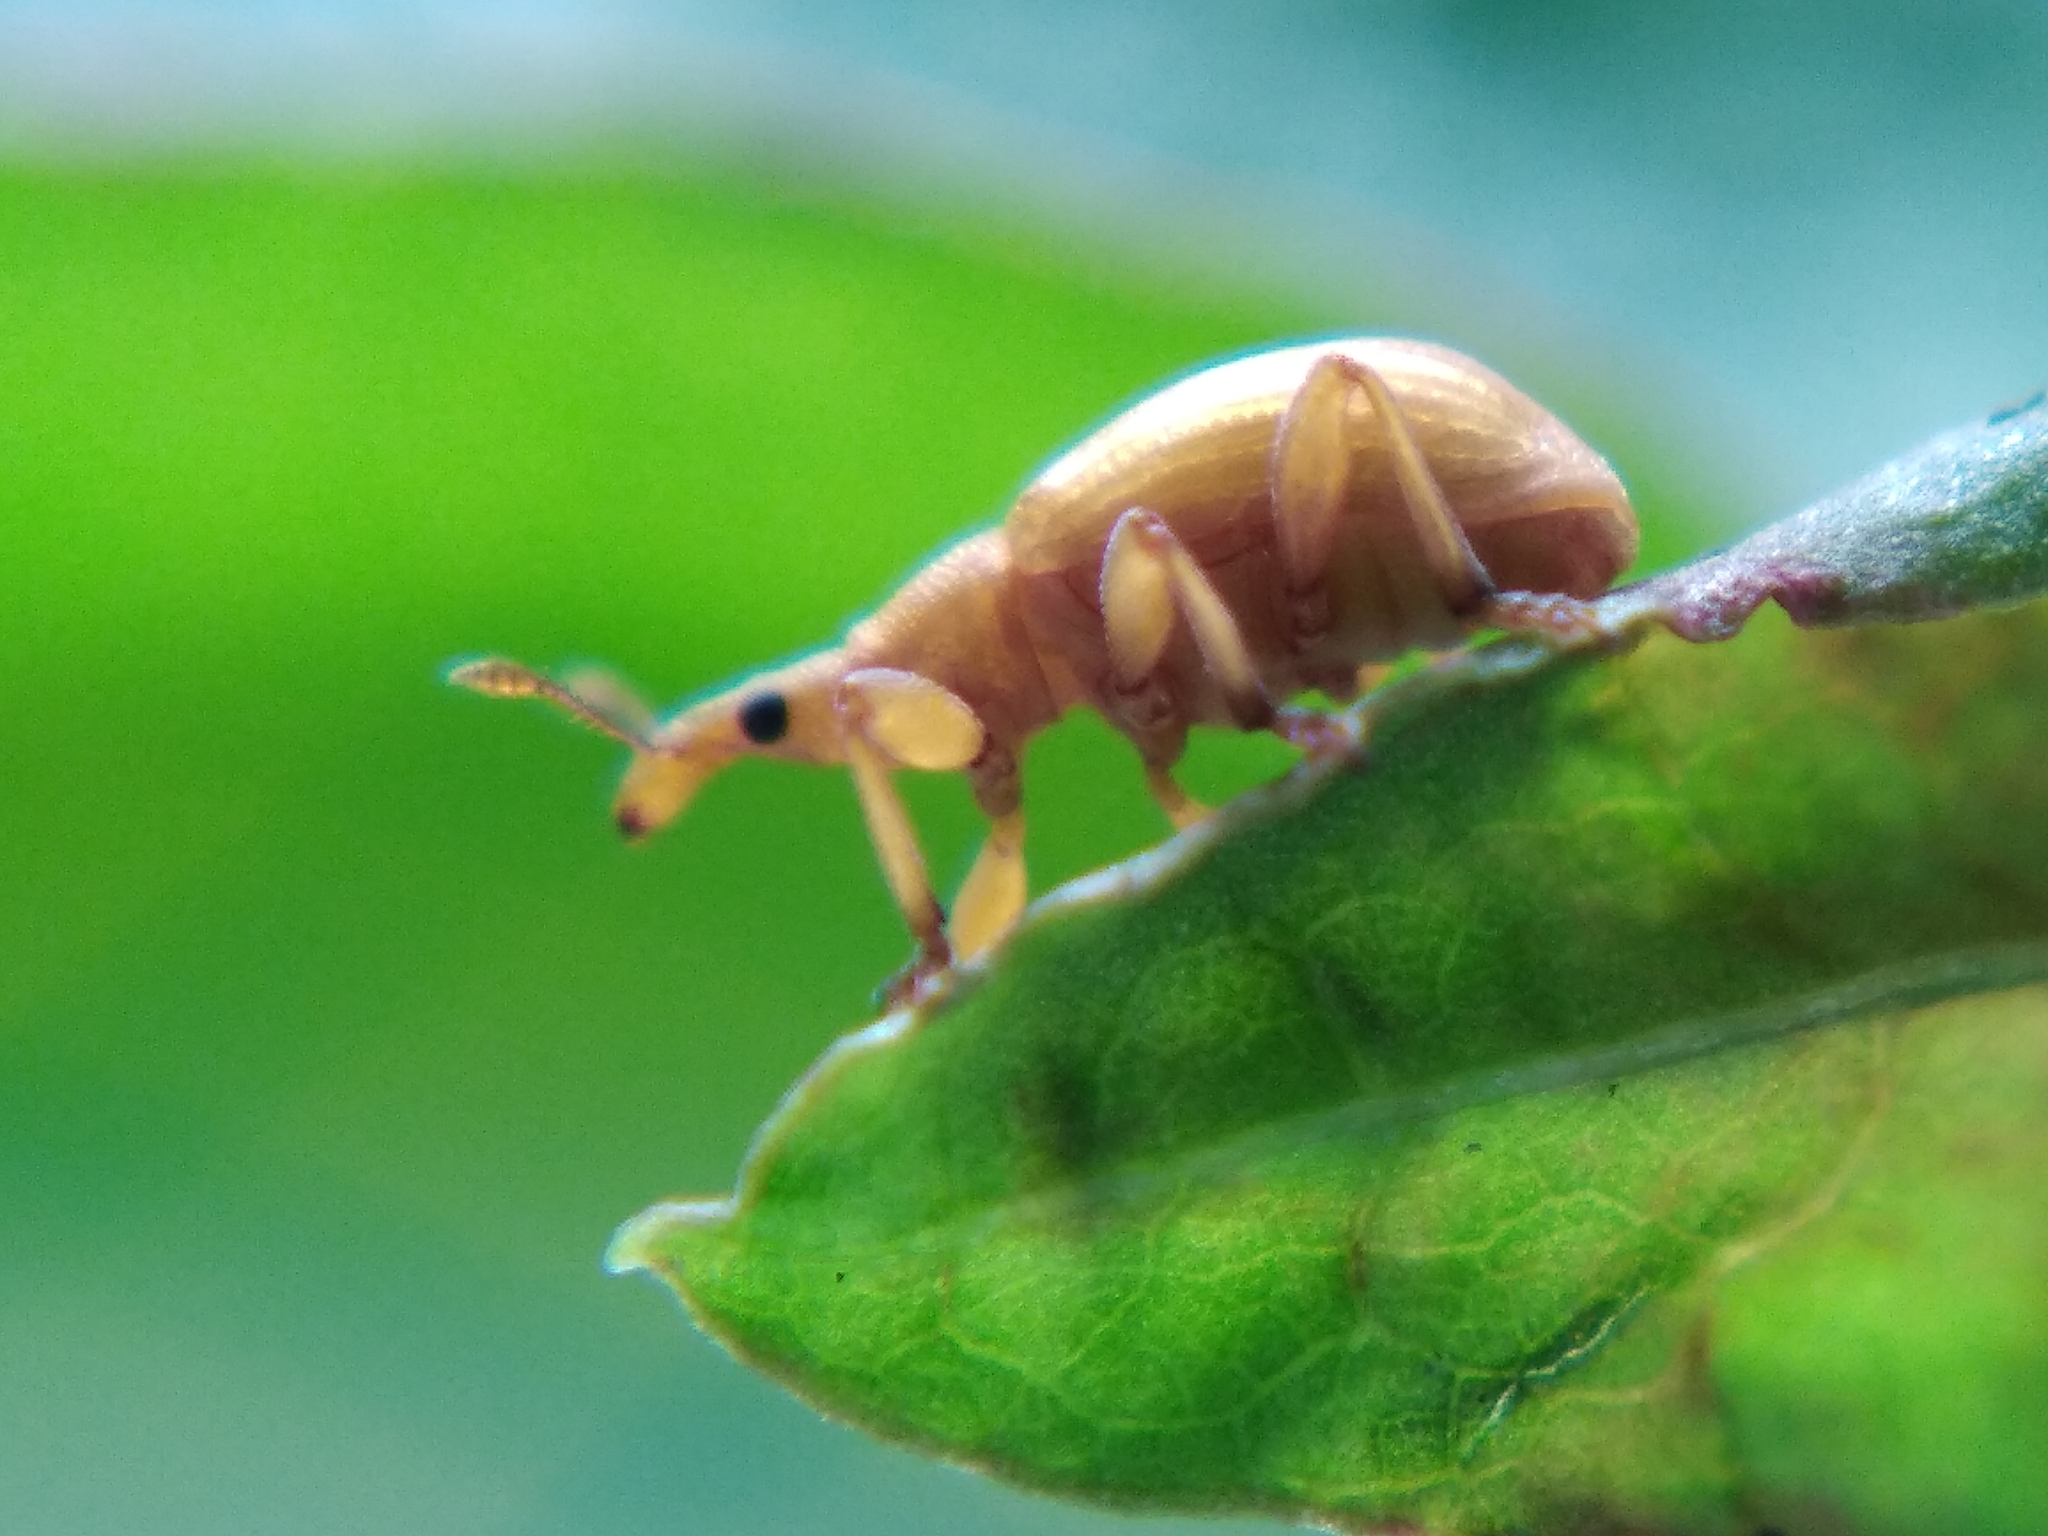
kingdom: Animalia
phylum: Arthropoda
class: Insecta
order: Coleoptera
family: Apionidae
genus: Apion
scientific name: Apion frumentarium
